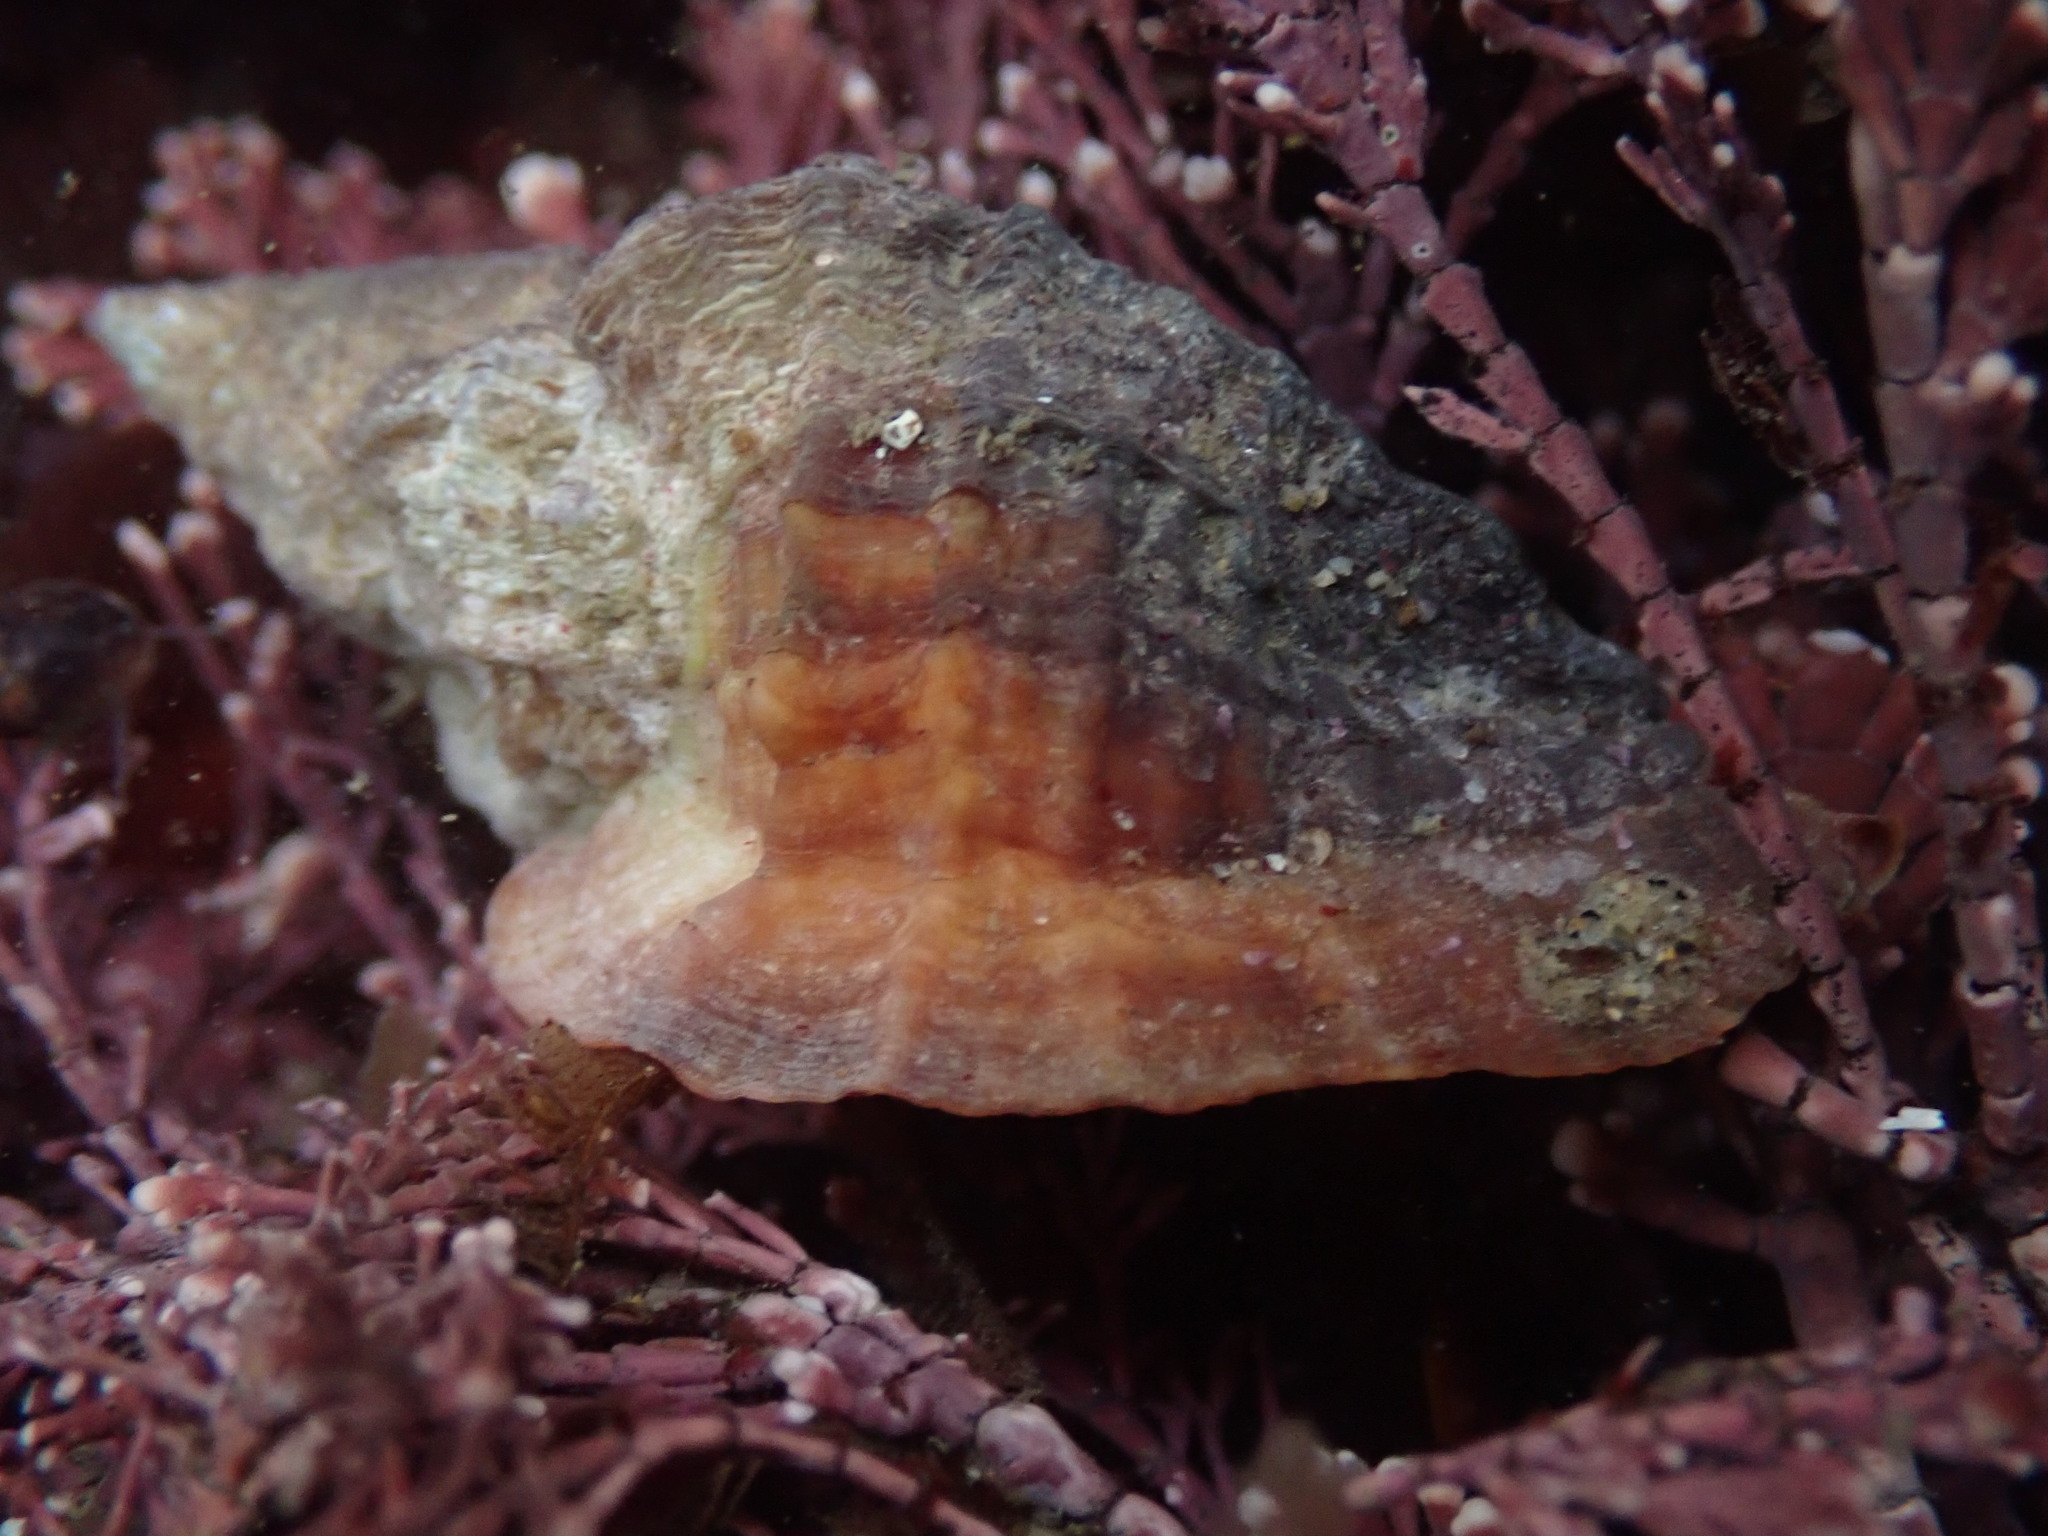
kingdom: Animalia
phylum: Mollusca
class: Gastropoda
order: Neogastropoda
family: Muricidae
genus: Ceratostoma
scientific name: Ceratostoma foliatum
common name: Foliate thorn purpura
